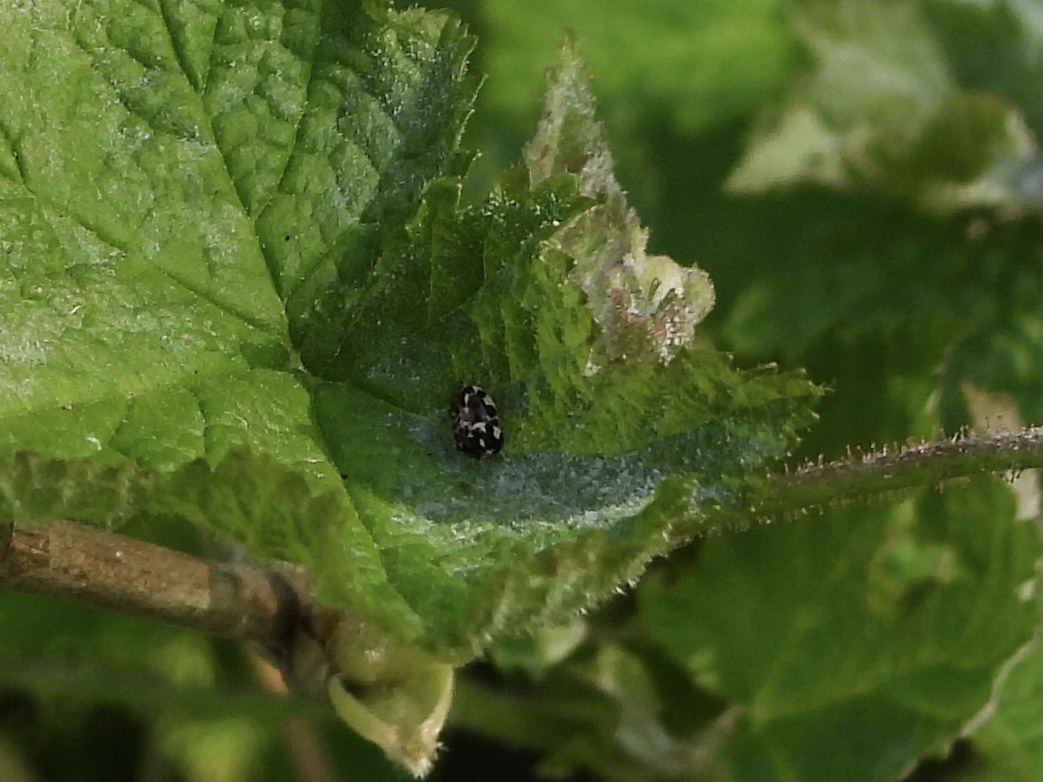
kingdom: Animalia
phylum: Arthropoda
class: Insecta
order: Coleoptera
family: Coccinellidae
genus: Psyllobora
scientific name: Psyllobora vigintimaculata
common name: Ladybird beetle
